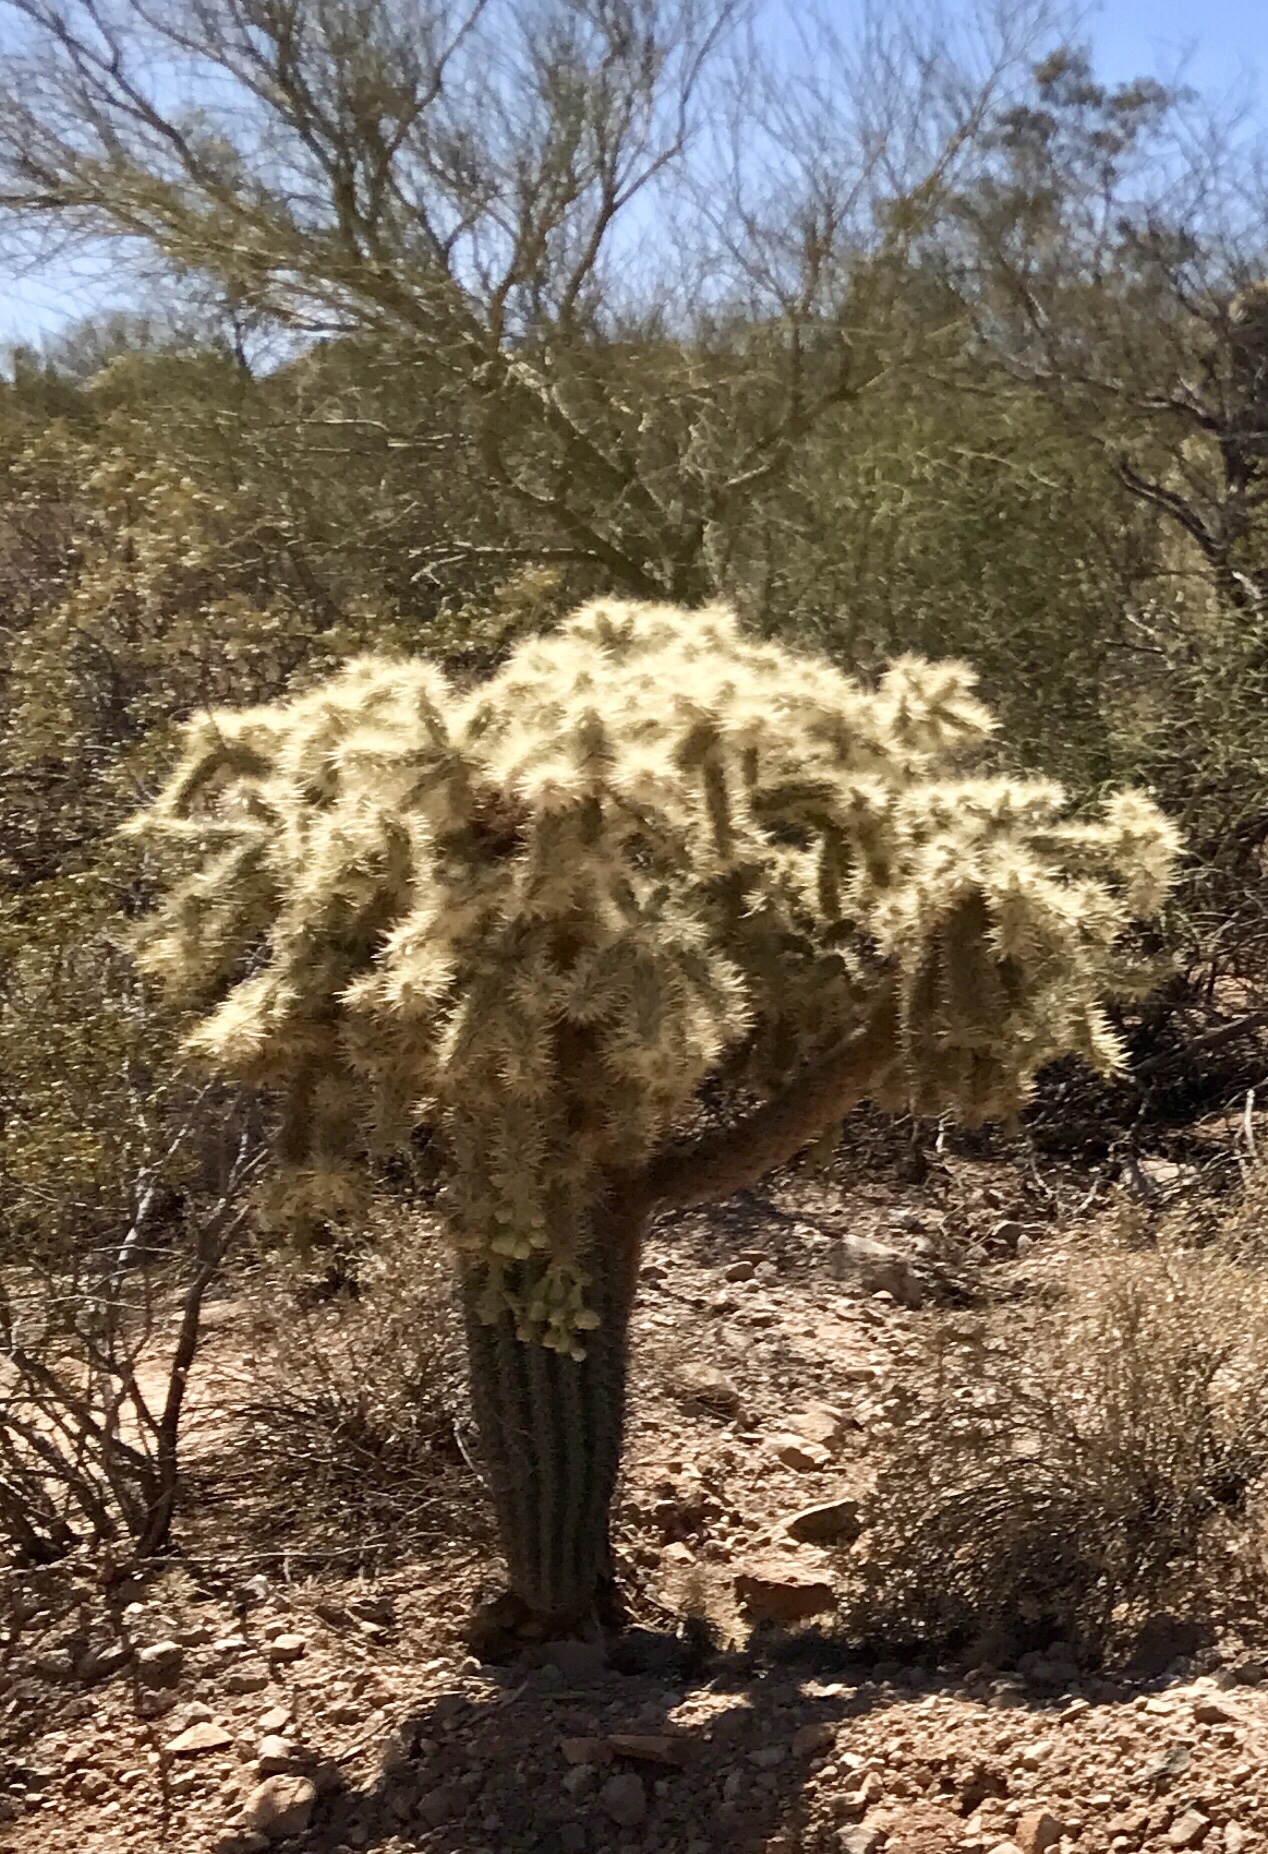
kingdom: Plantae
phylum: Tracheophyta
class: Magnoliopsida
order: Caryophyllales
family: Cactaceae
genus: Cylindropuntia
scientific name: Cylindropuntia fulgida
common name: Jumping cholla
